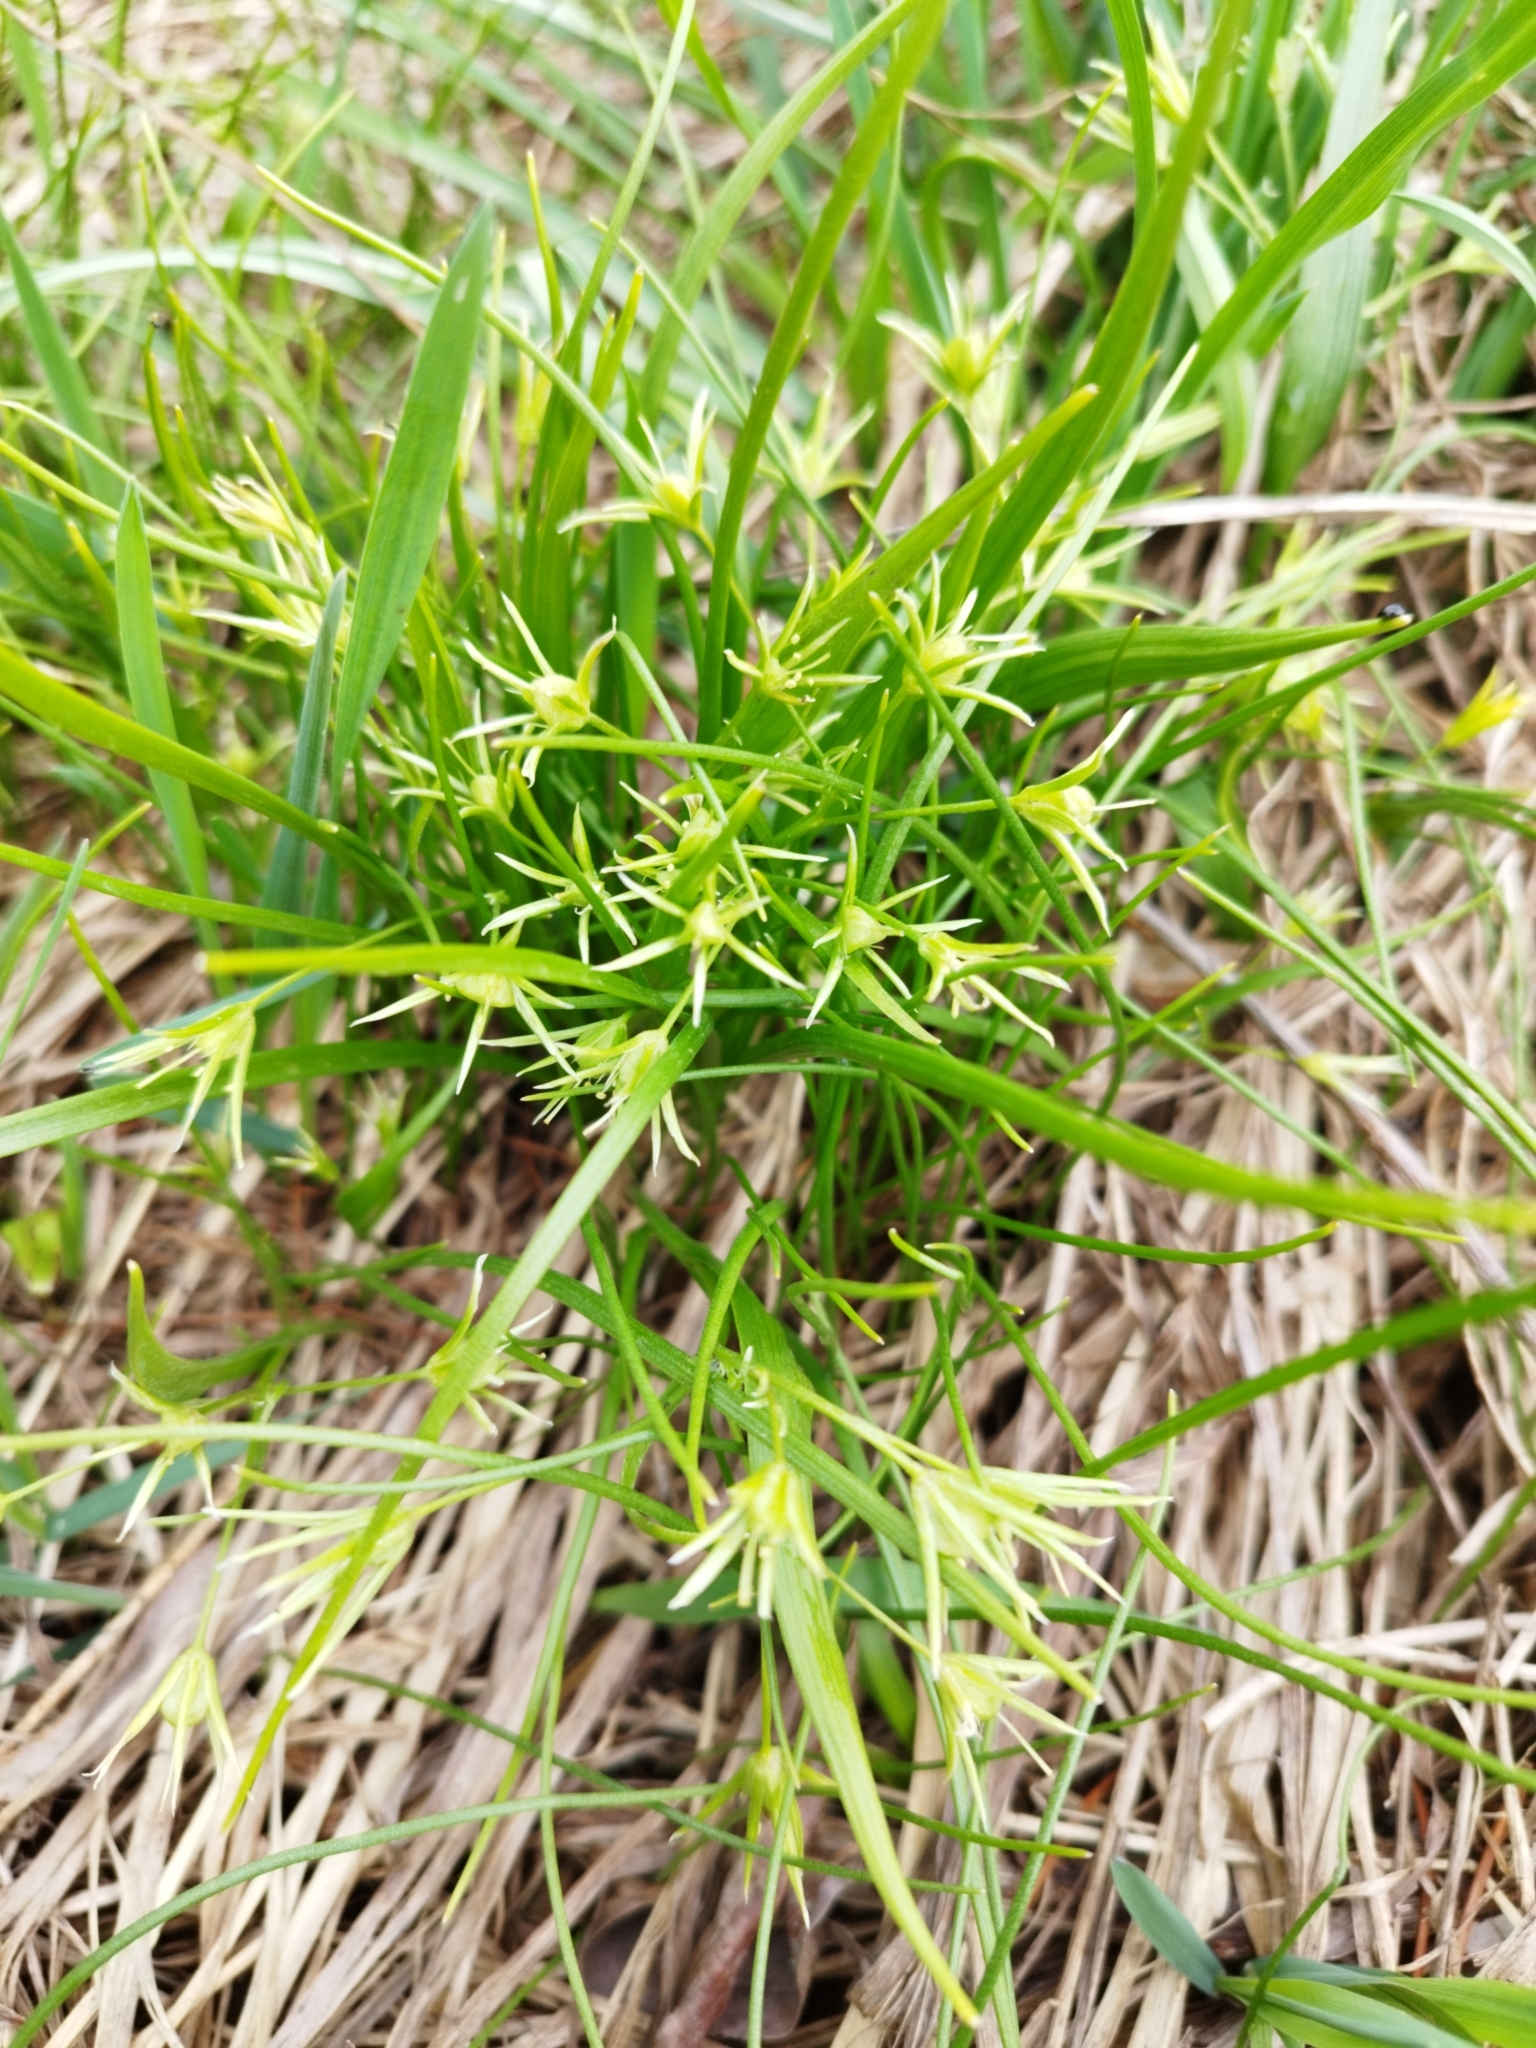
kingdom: Plantae
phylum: Tracheophyta
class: Liliopsida
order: Liliales
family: Liliaceae
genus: Gagea
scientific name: Gagea minima
